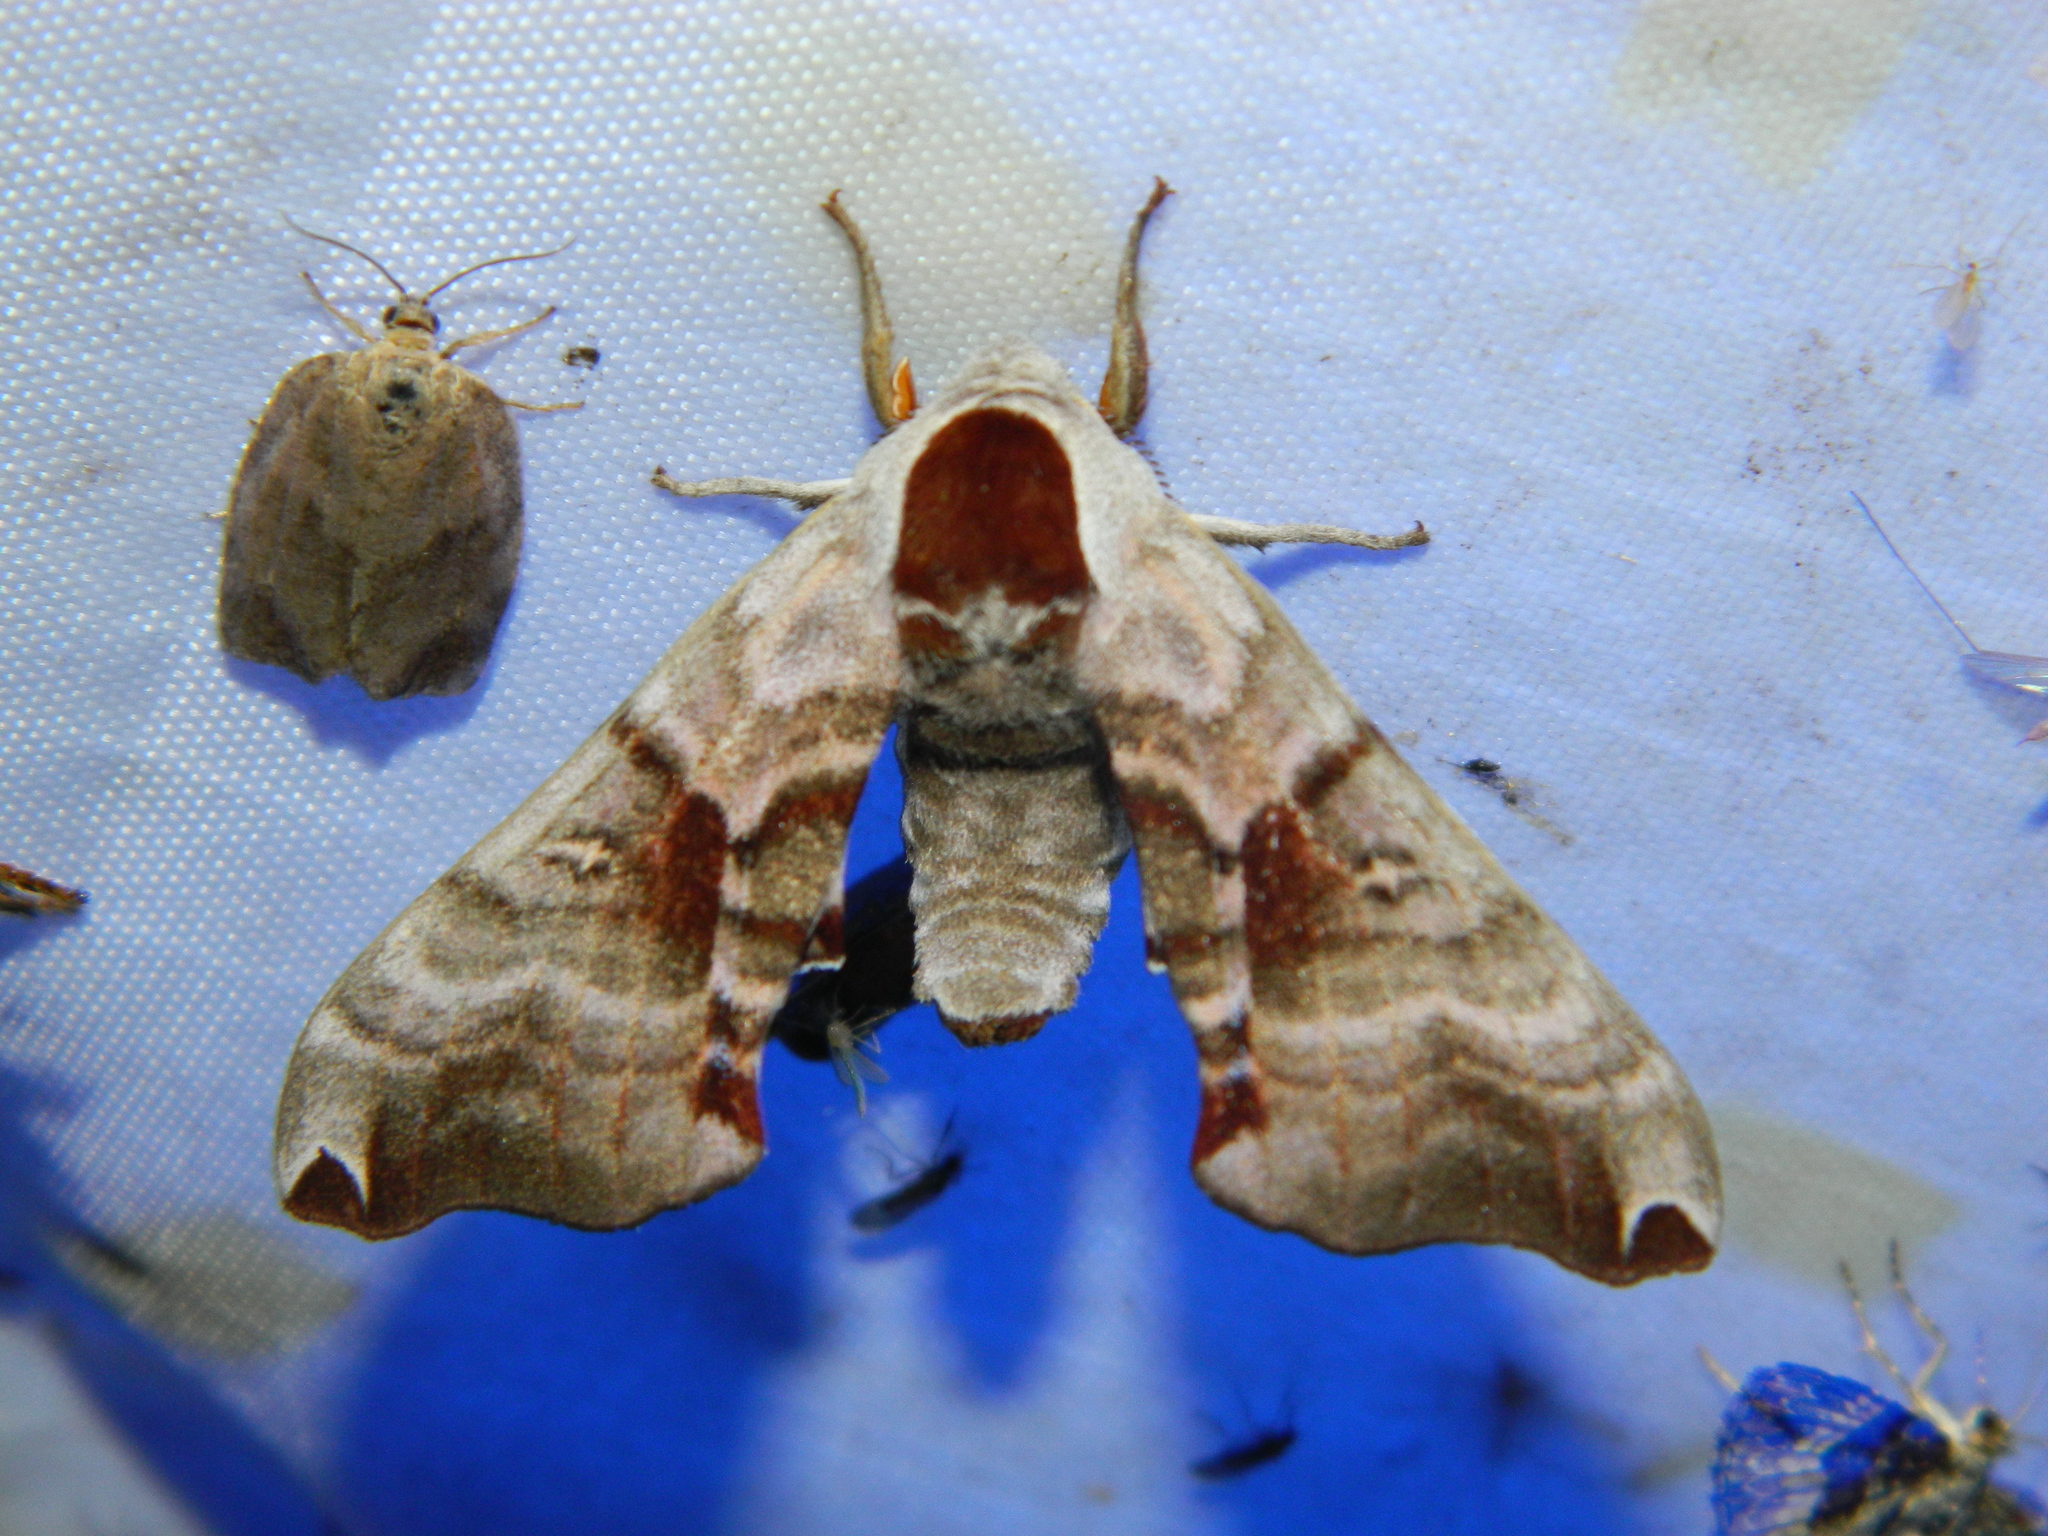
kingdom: Animalia
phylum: Arthropoda
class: Insecta
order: Lepidoptera
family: Sphingidae
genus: Smerinthus
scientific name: Smerinthus jamaicensis
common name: Twin spotted sphinx
